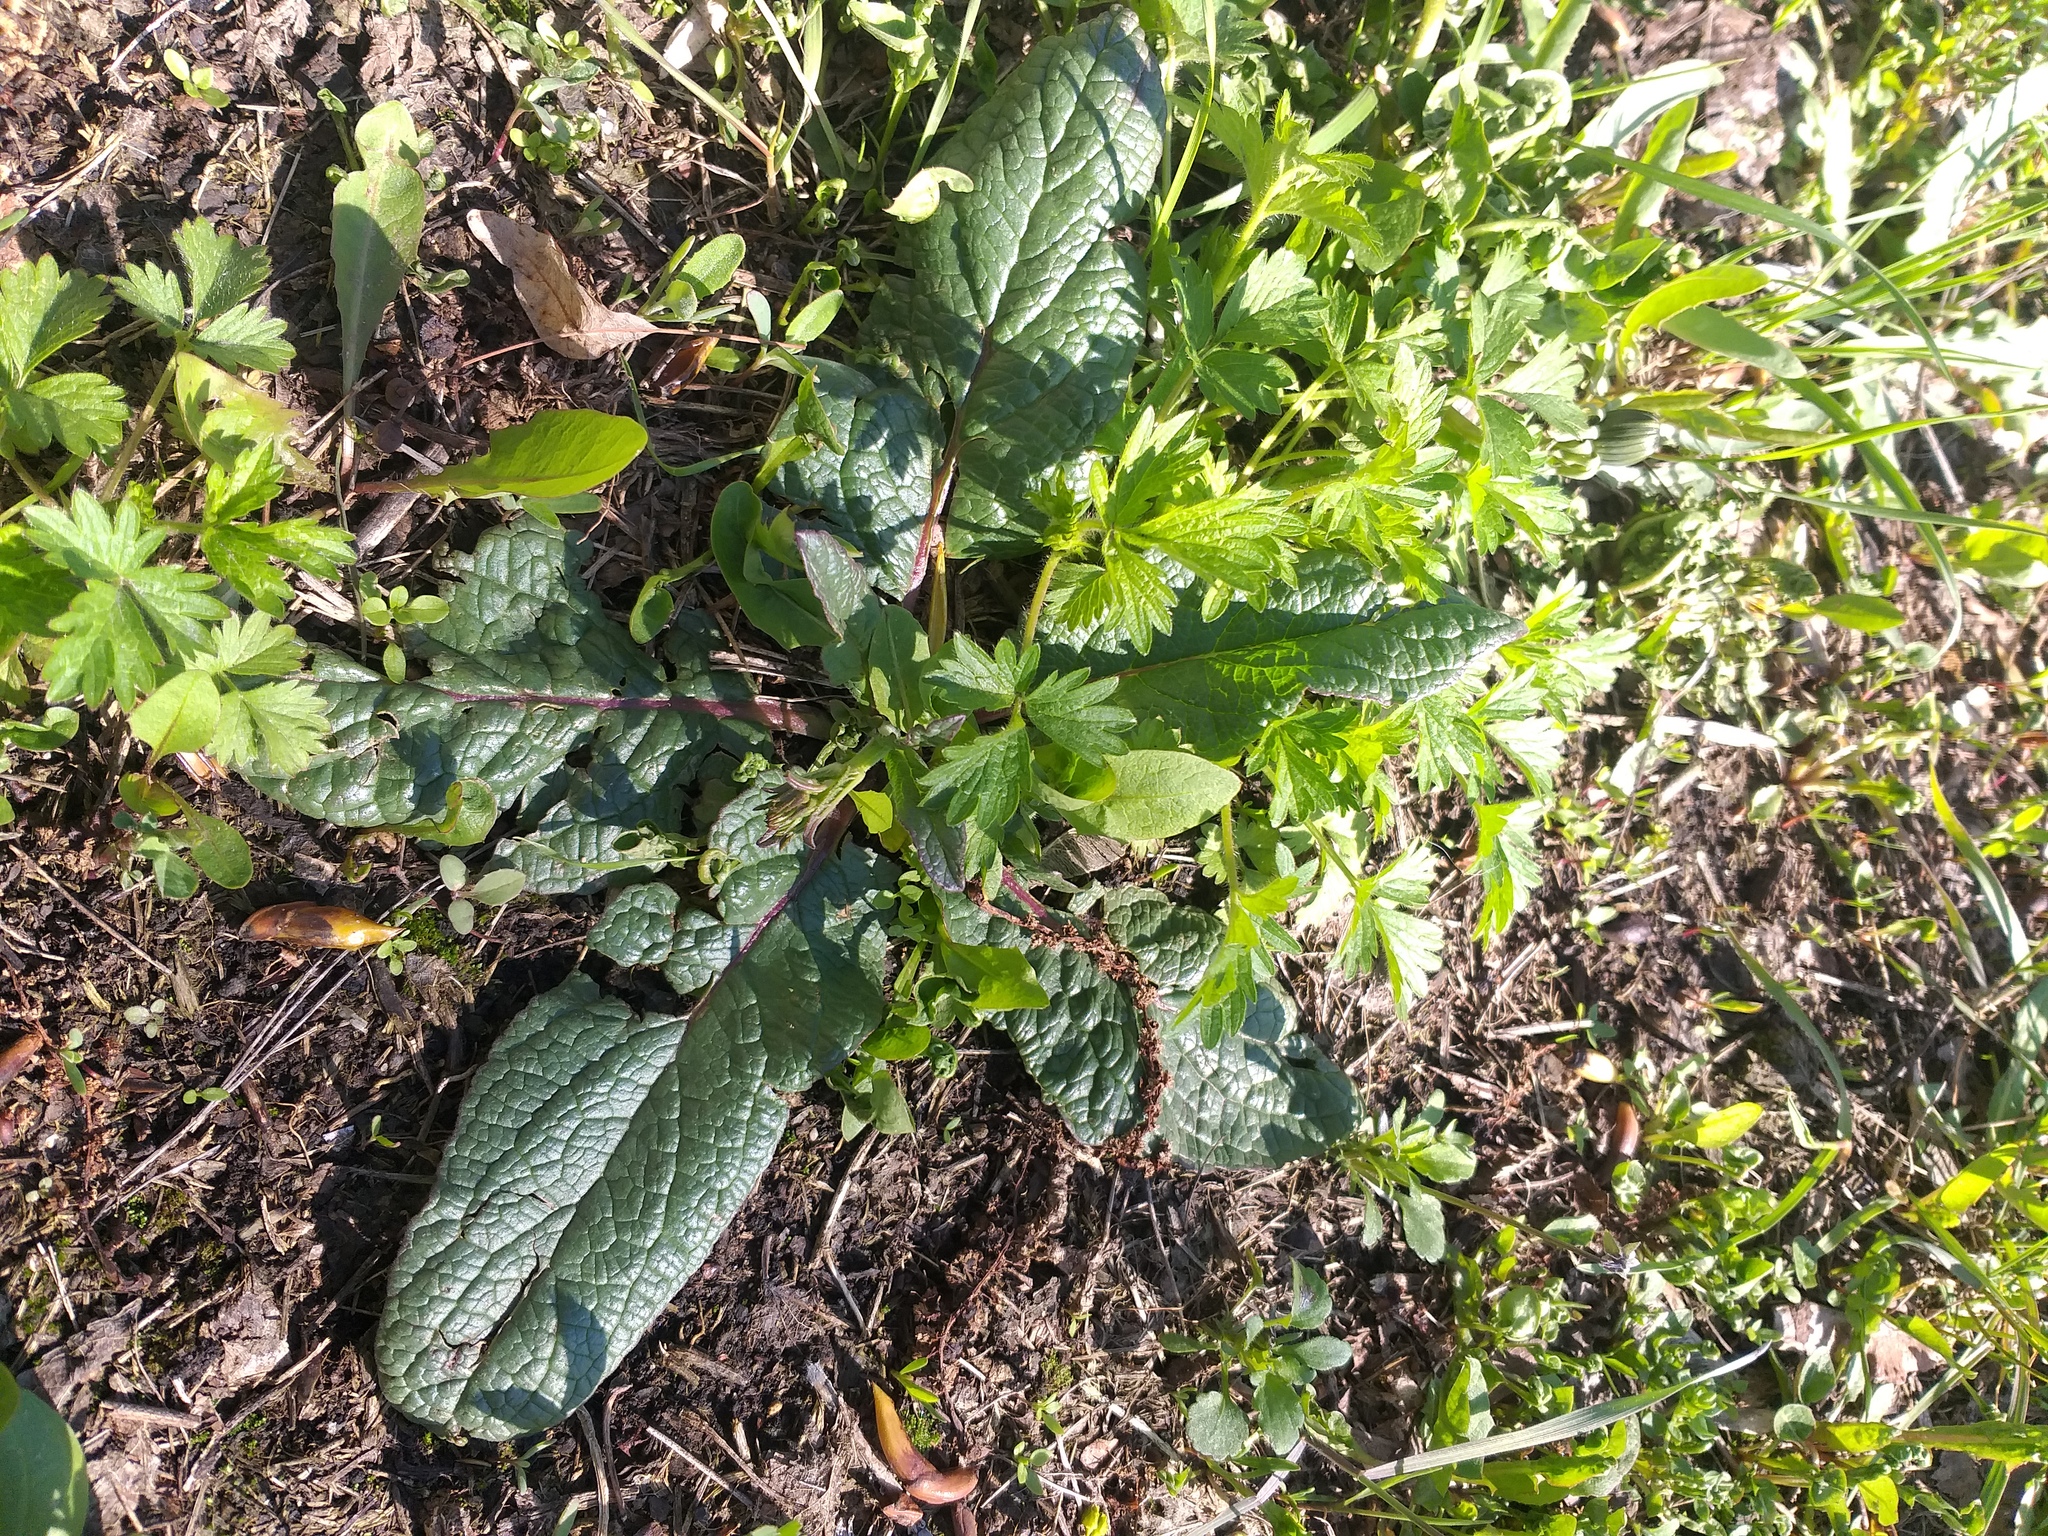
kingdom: Plantae
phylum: Tracheophyta
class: Magnoliopsida
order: Lamiales
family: Scrophulariaceae
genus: Verbascum
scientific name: Verbascum phoeniceum
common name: Purple mullein
